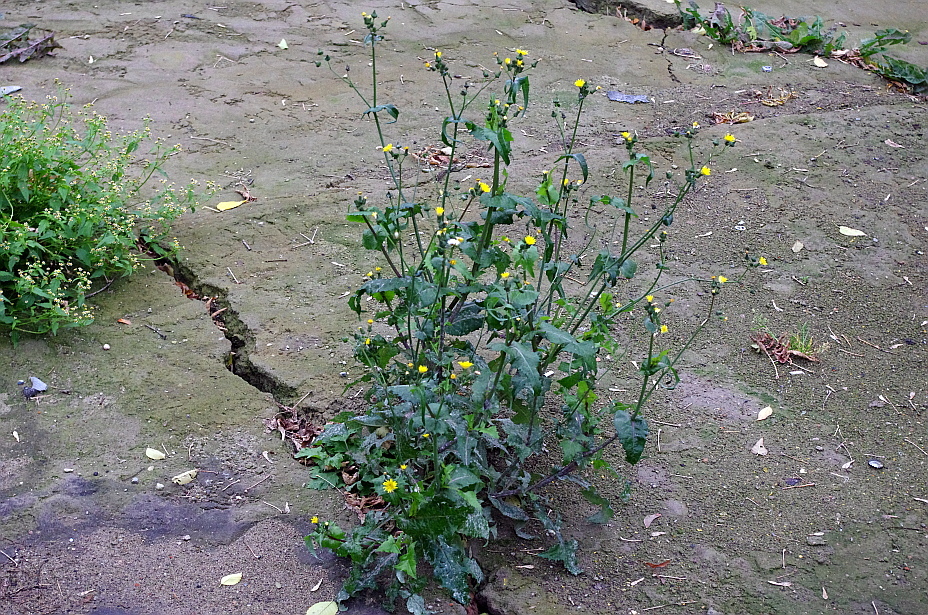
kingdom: Plantae
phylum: Tracheophyta
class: Magnoliopsida
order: Asterales
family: Asteraceae
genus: Sonchus
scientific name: Sonchus oleraceus
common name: Common sowthistle
